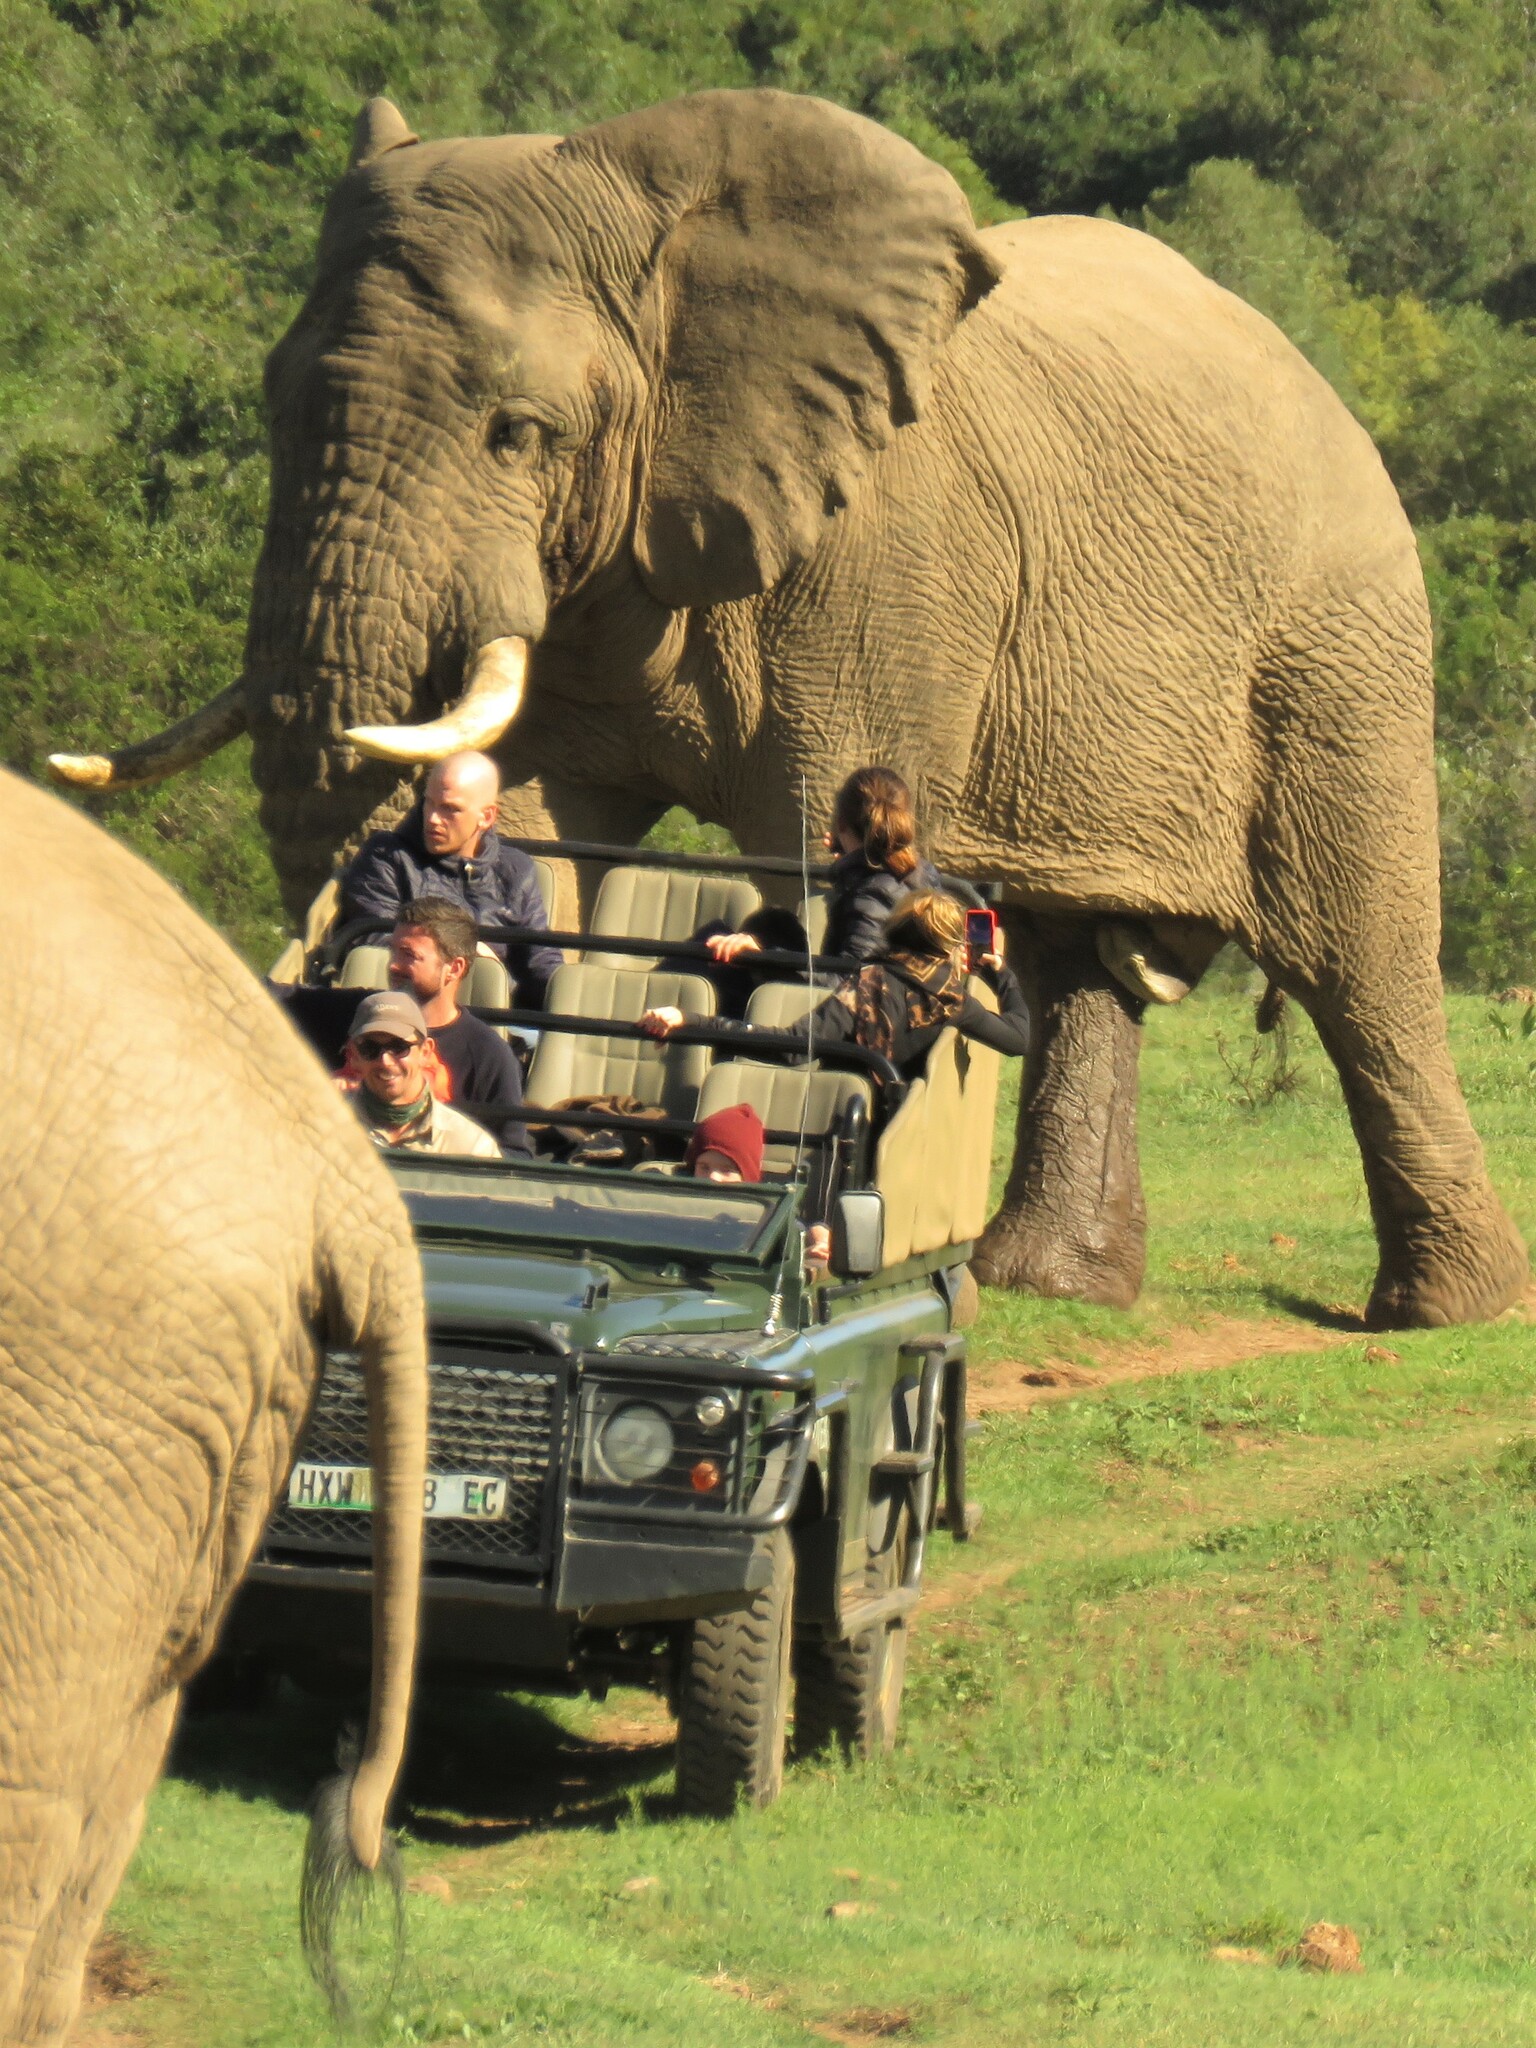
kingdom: Animalia
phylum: Chordata
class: Mammalia
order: Proboscidea
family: Elephantidae
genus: Loxodonta
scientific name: Loxodonta africana
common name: African elephant
